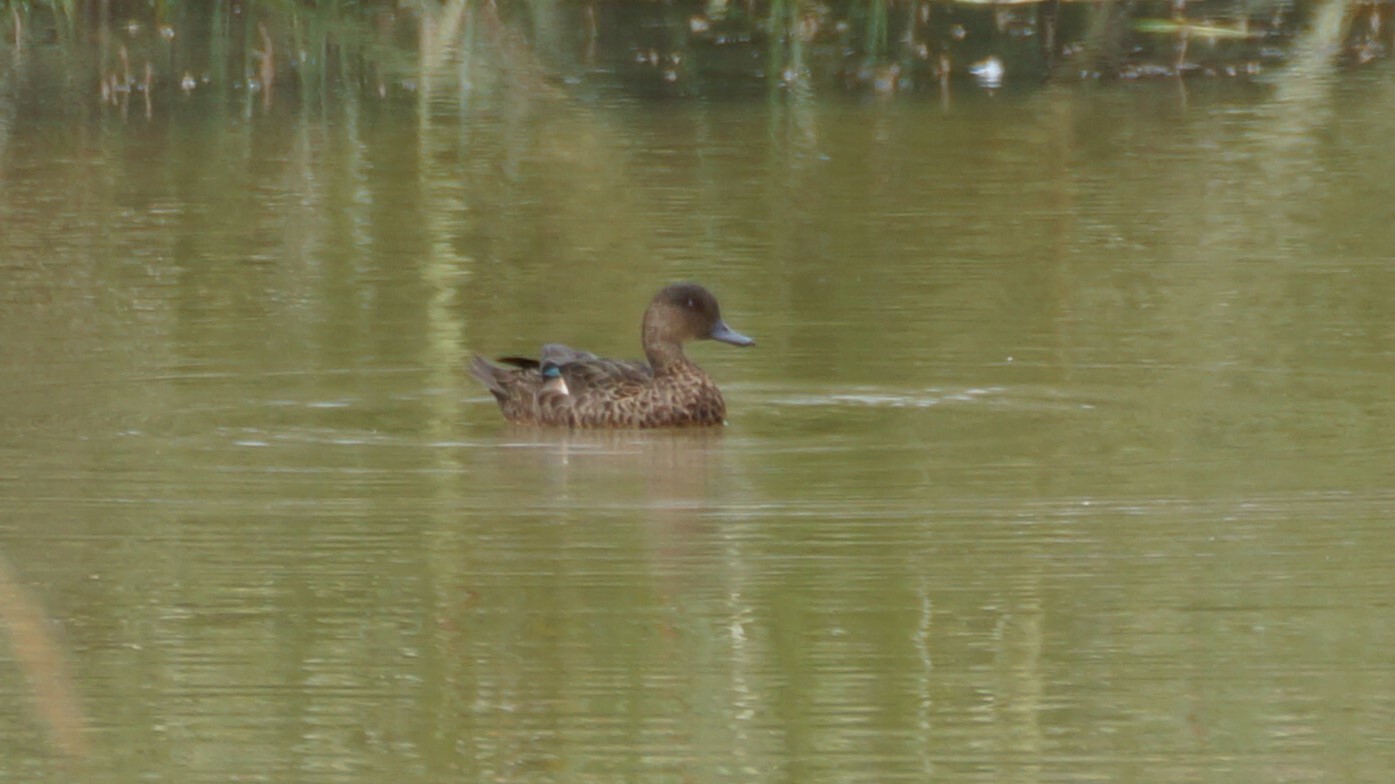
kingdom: Animalia
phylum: Chordata
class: Aves
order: Anseriformes
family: Anatidae
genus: Anas
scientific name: Anas castanea
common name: Chestnut teal
